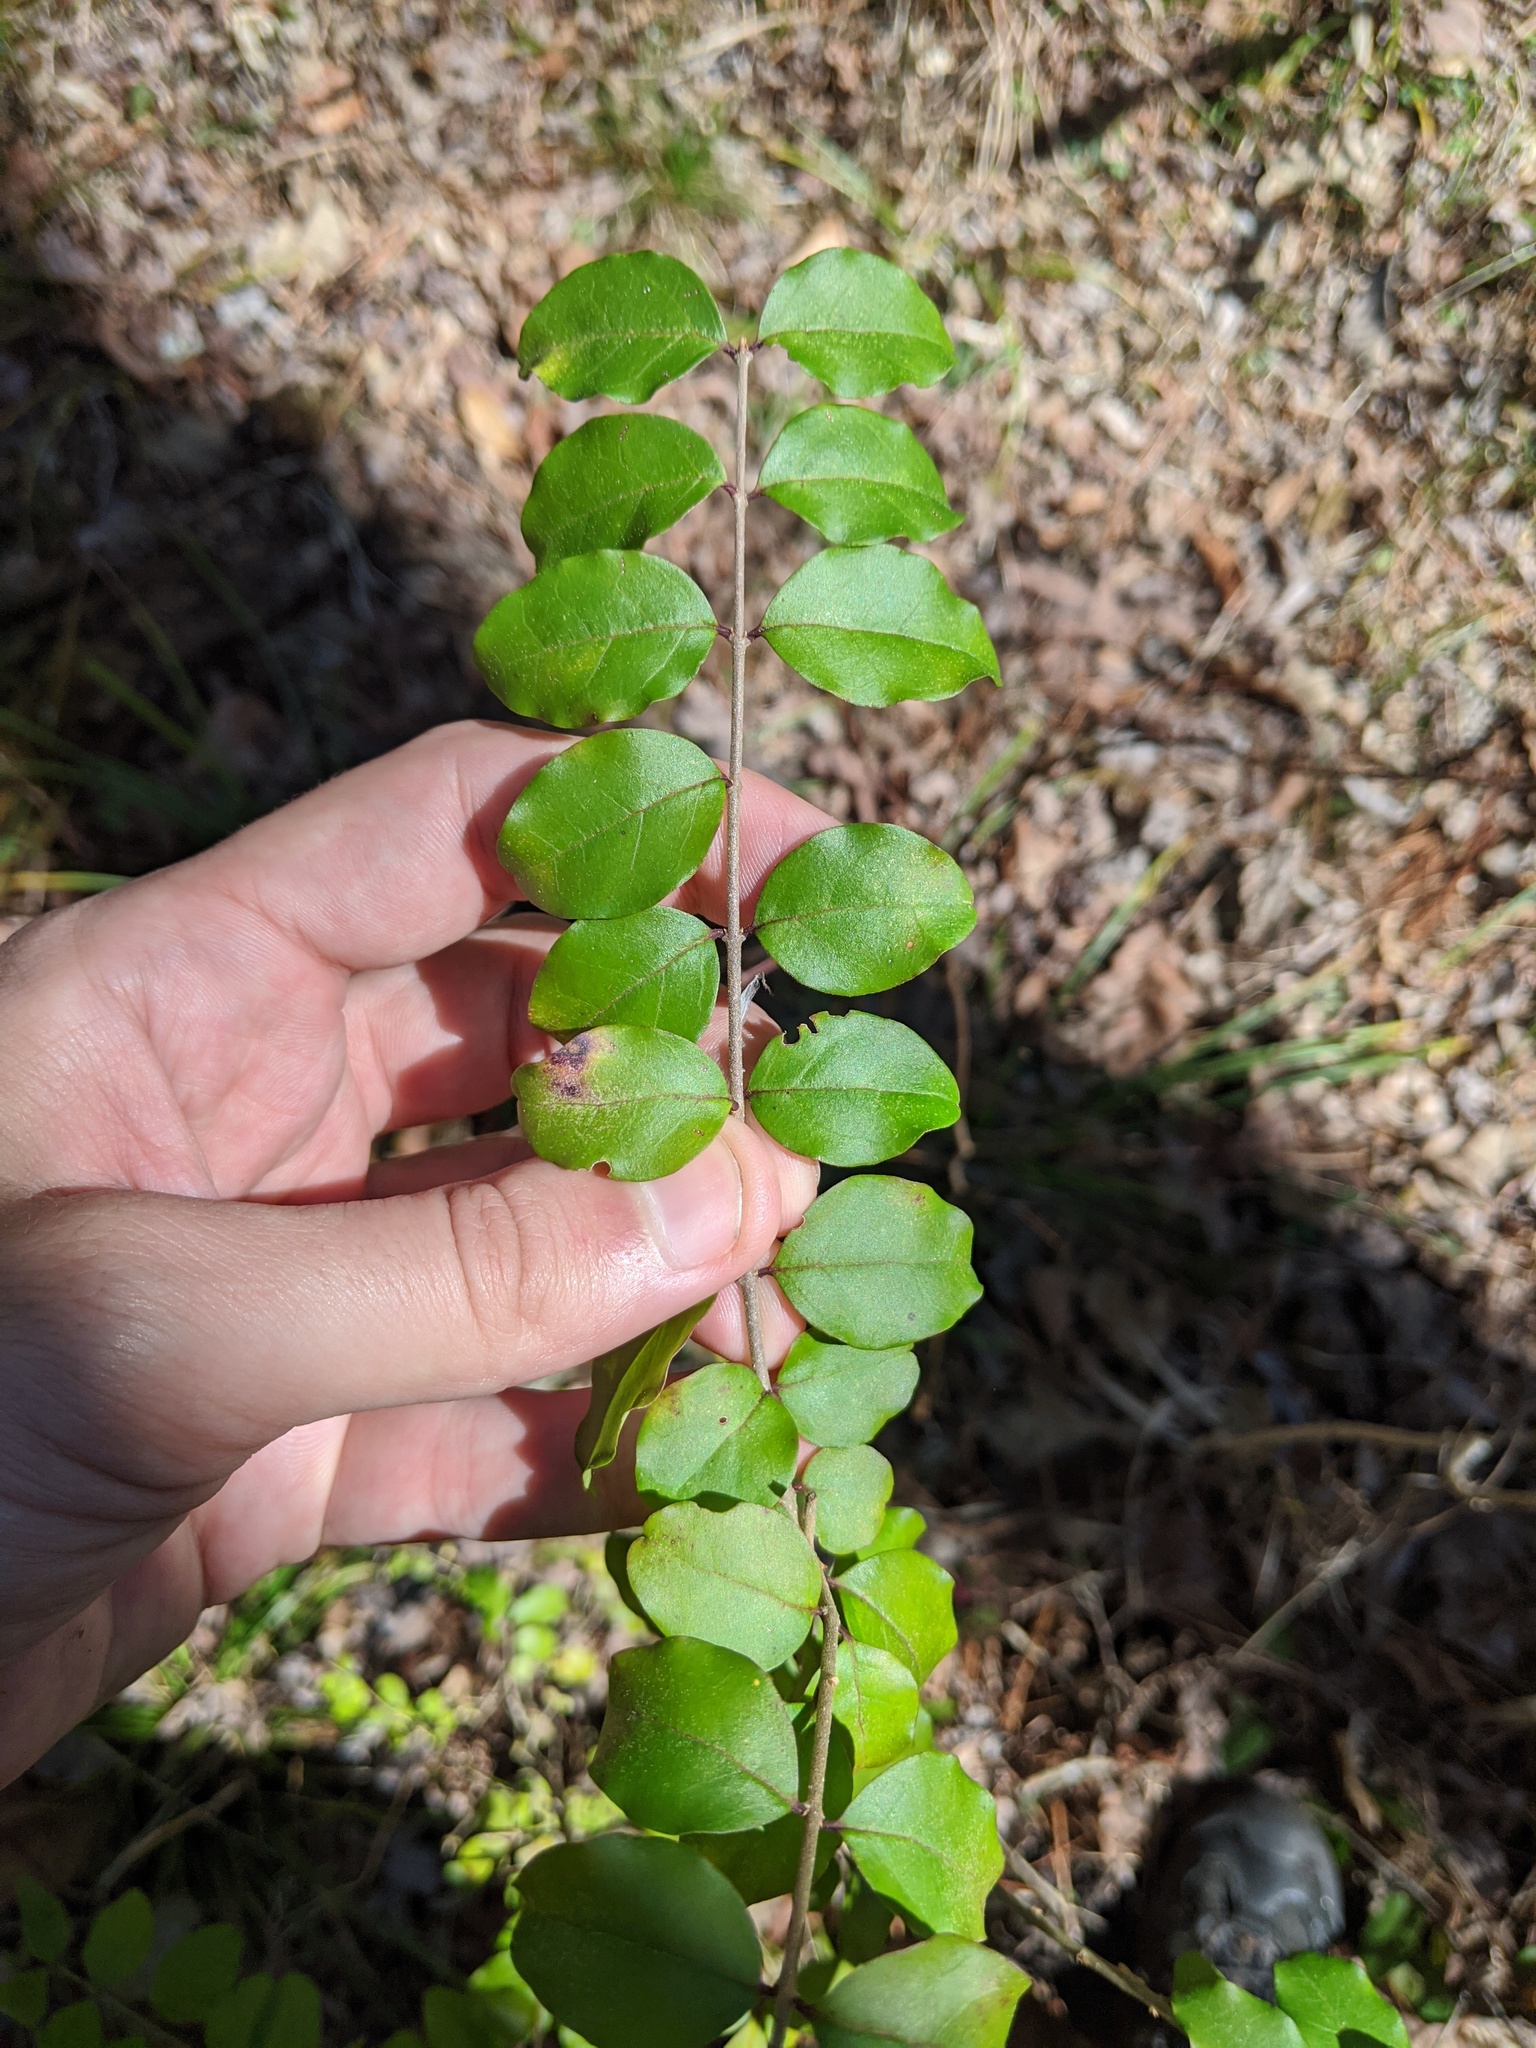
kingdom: Plantae
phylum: Tracheophyta
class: Magnoliopsida
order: Lamiales
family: Oleaceae
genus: Ligustrum
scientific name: Ligustrum sinense
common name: Chinese privet
